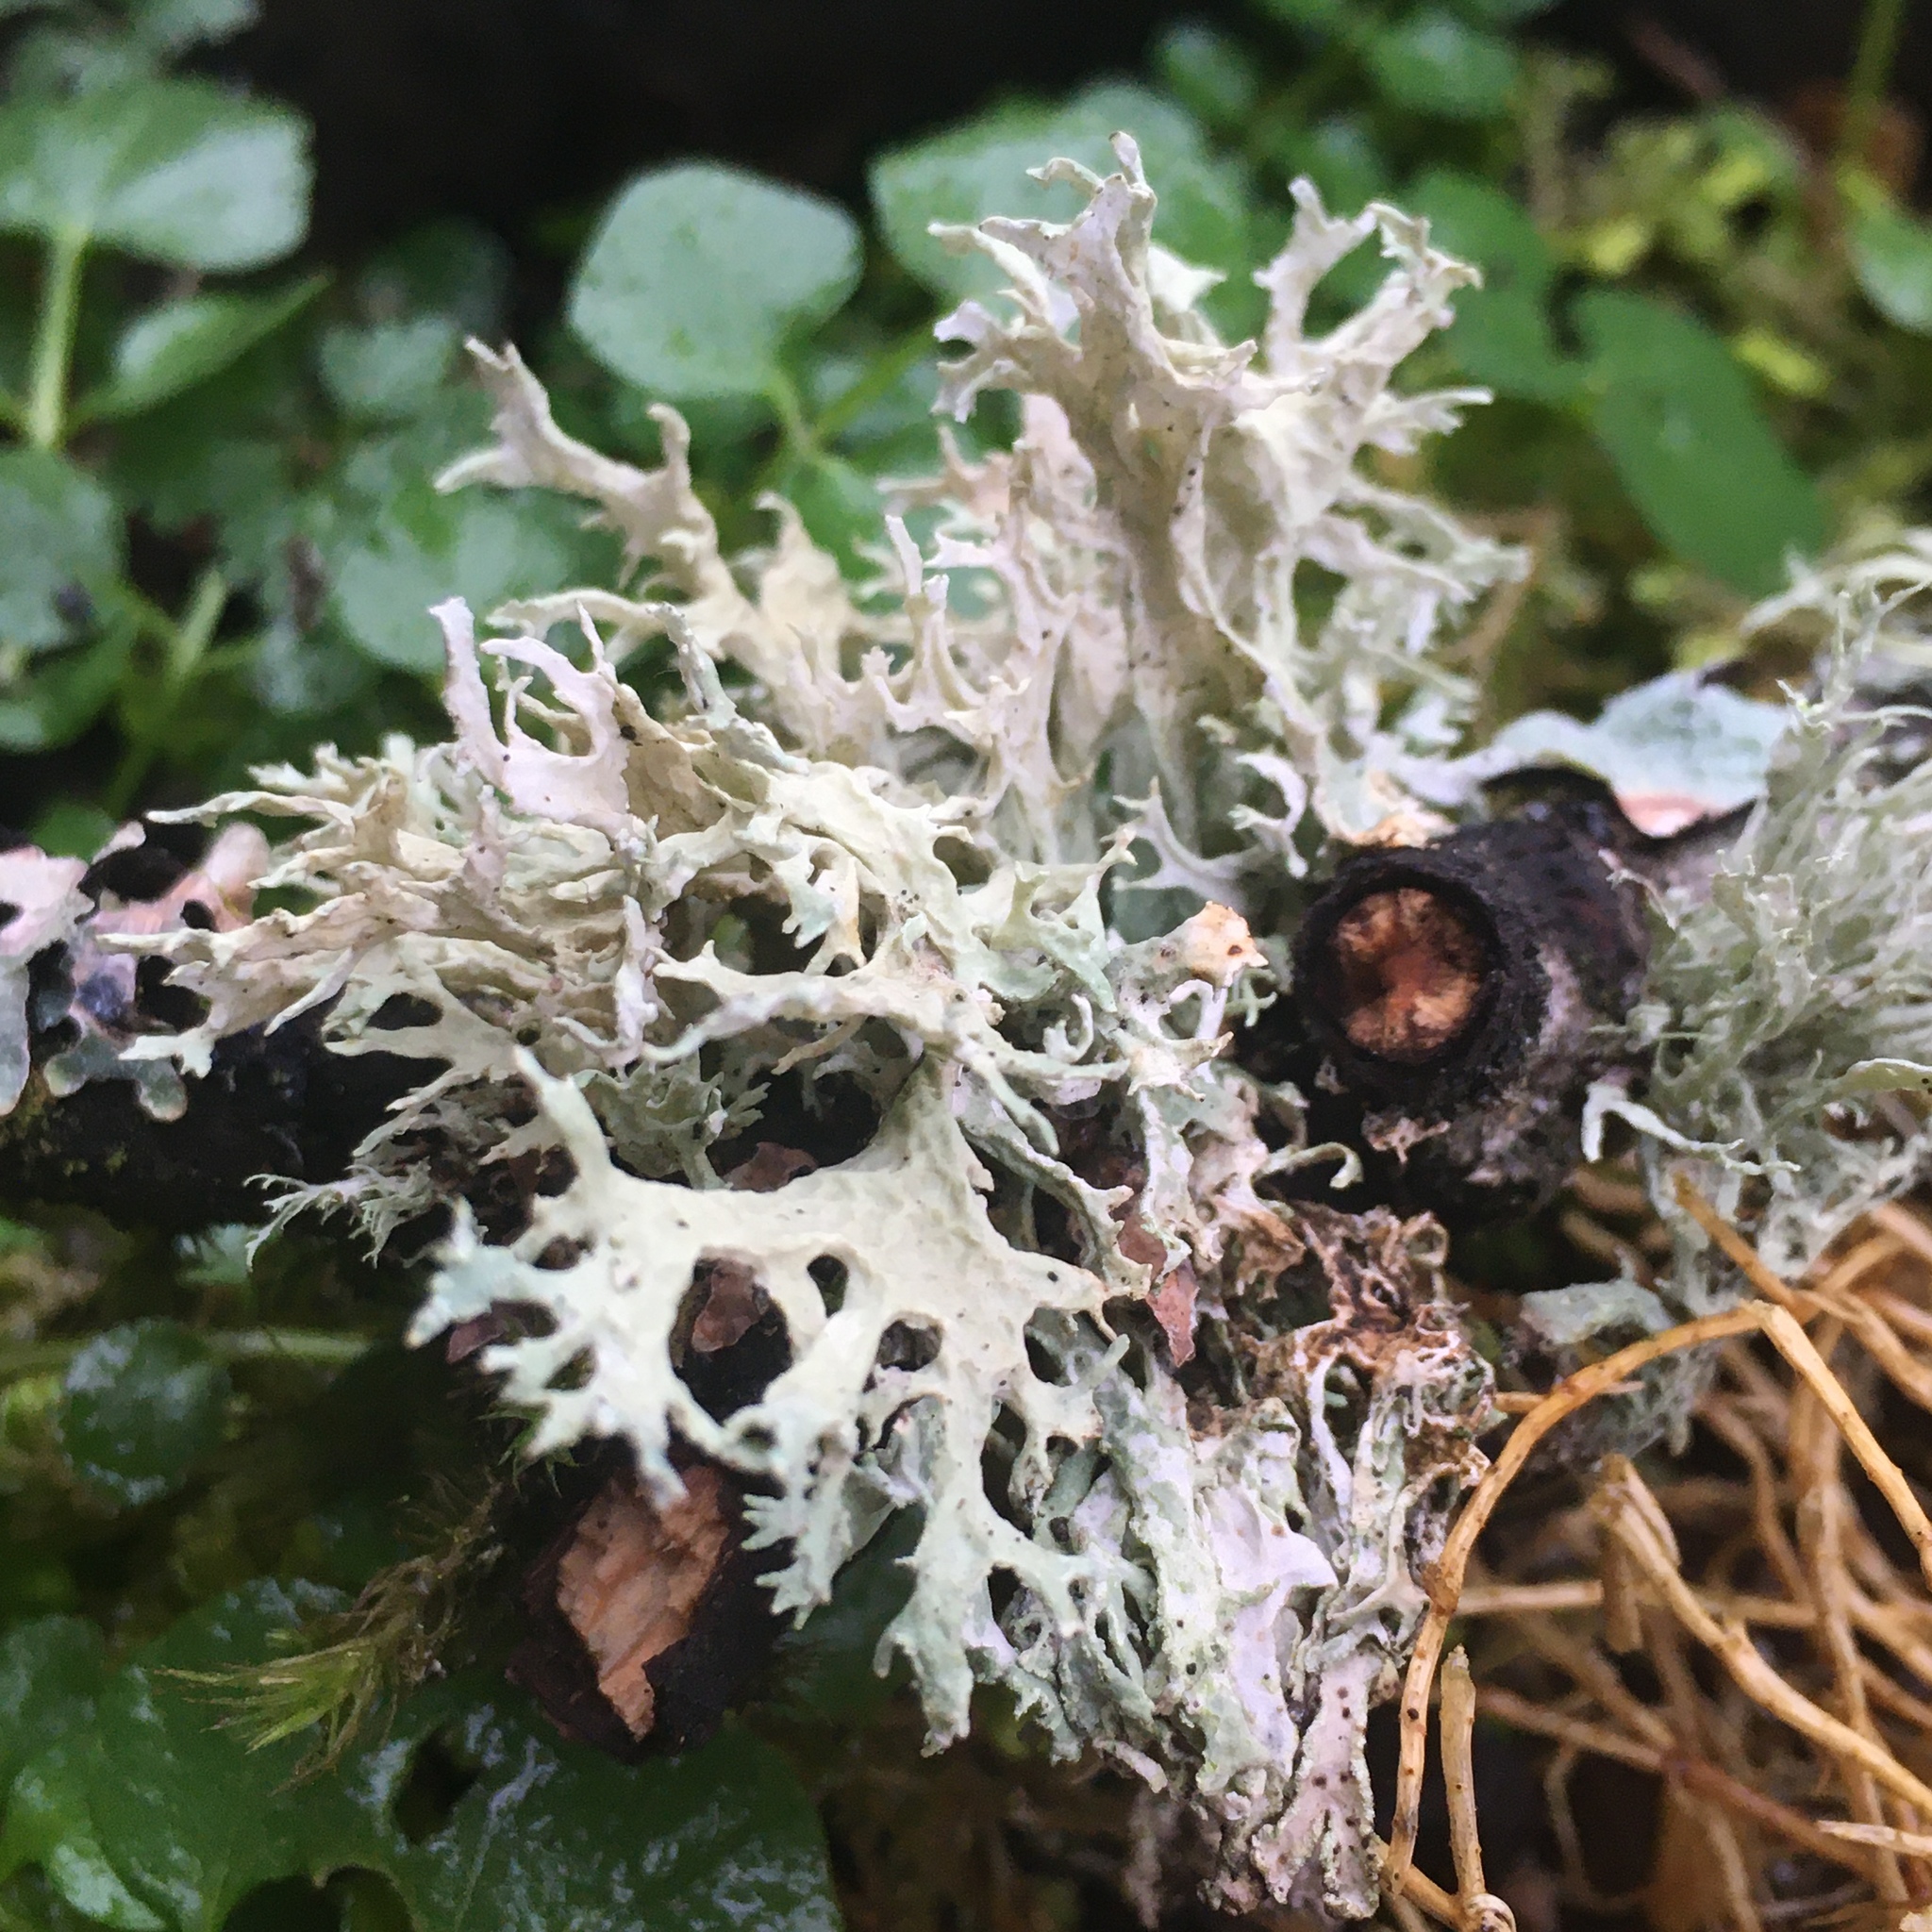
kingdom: Fungi
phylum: Ascomycota
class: Lecanoromycetes
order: Lecanorales
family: Parmeliaceae
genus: Evernia
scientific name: Evernia prunastri
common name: Oak moss
